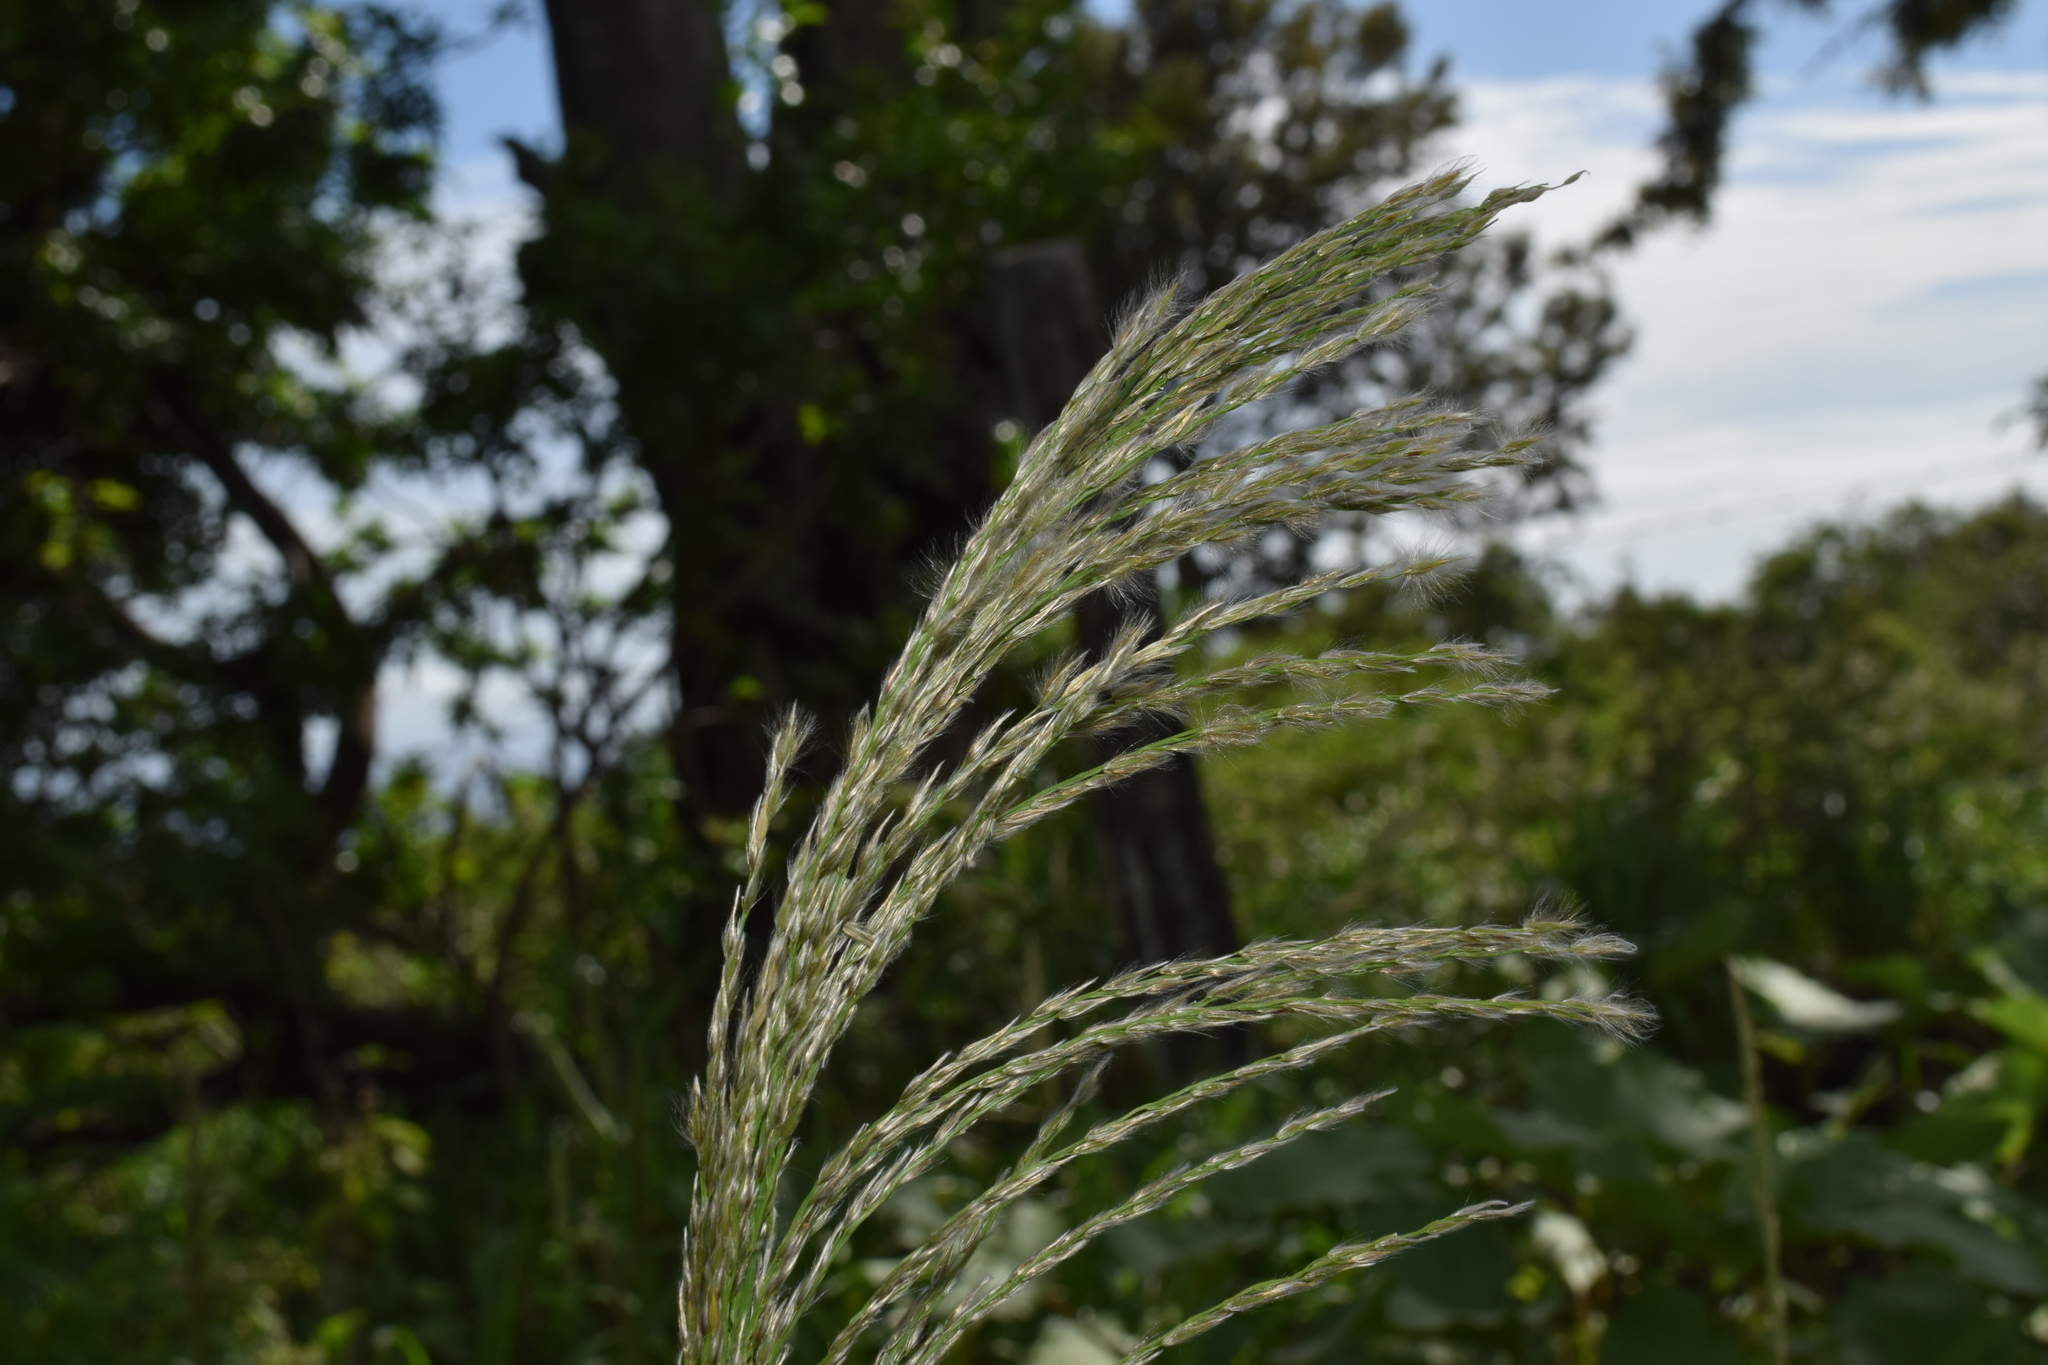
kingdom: Plantae
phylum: Tracheophyta
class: Liliopsida
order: Poales
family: Poaceae
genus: Digitaria
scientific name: Digitaria insularis
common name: Sourgrass
